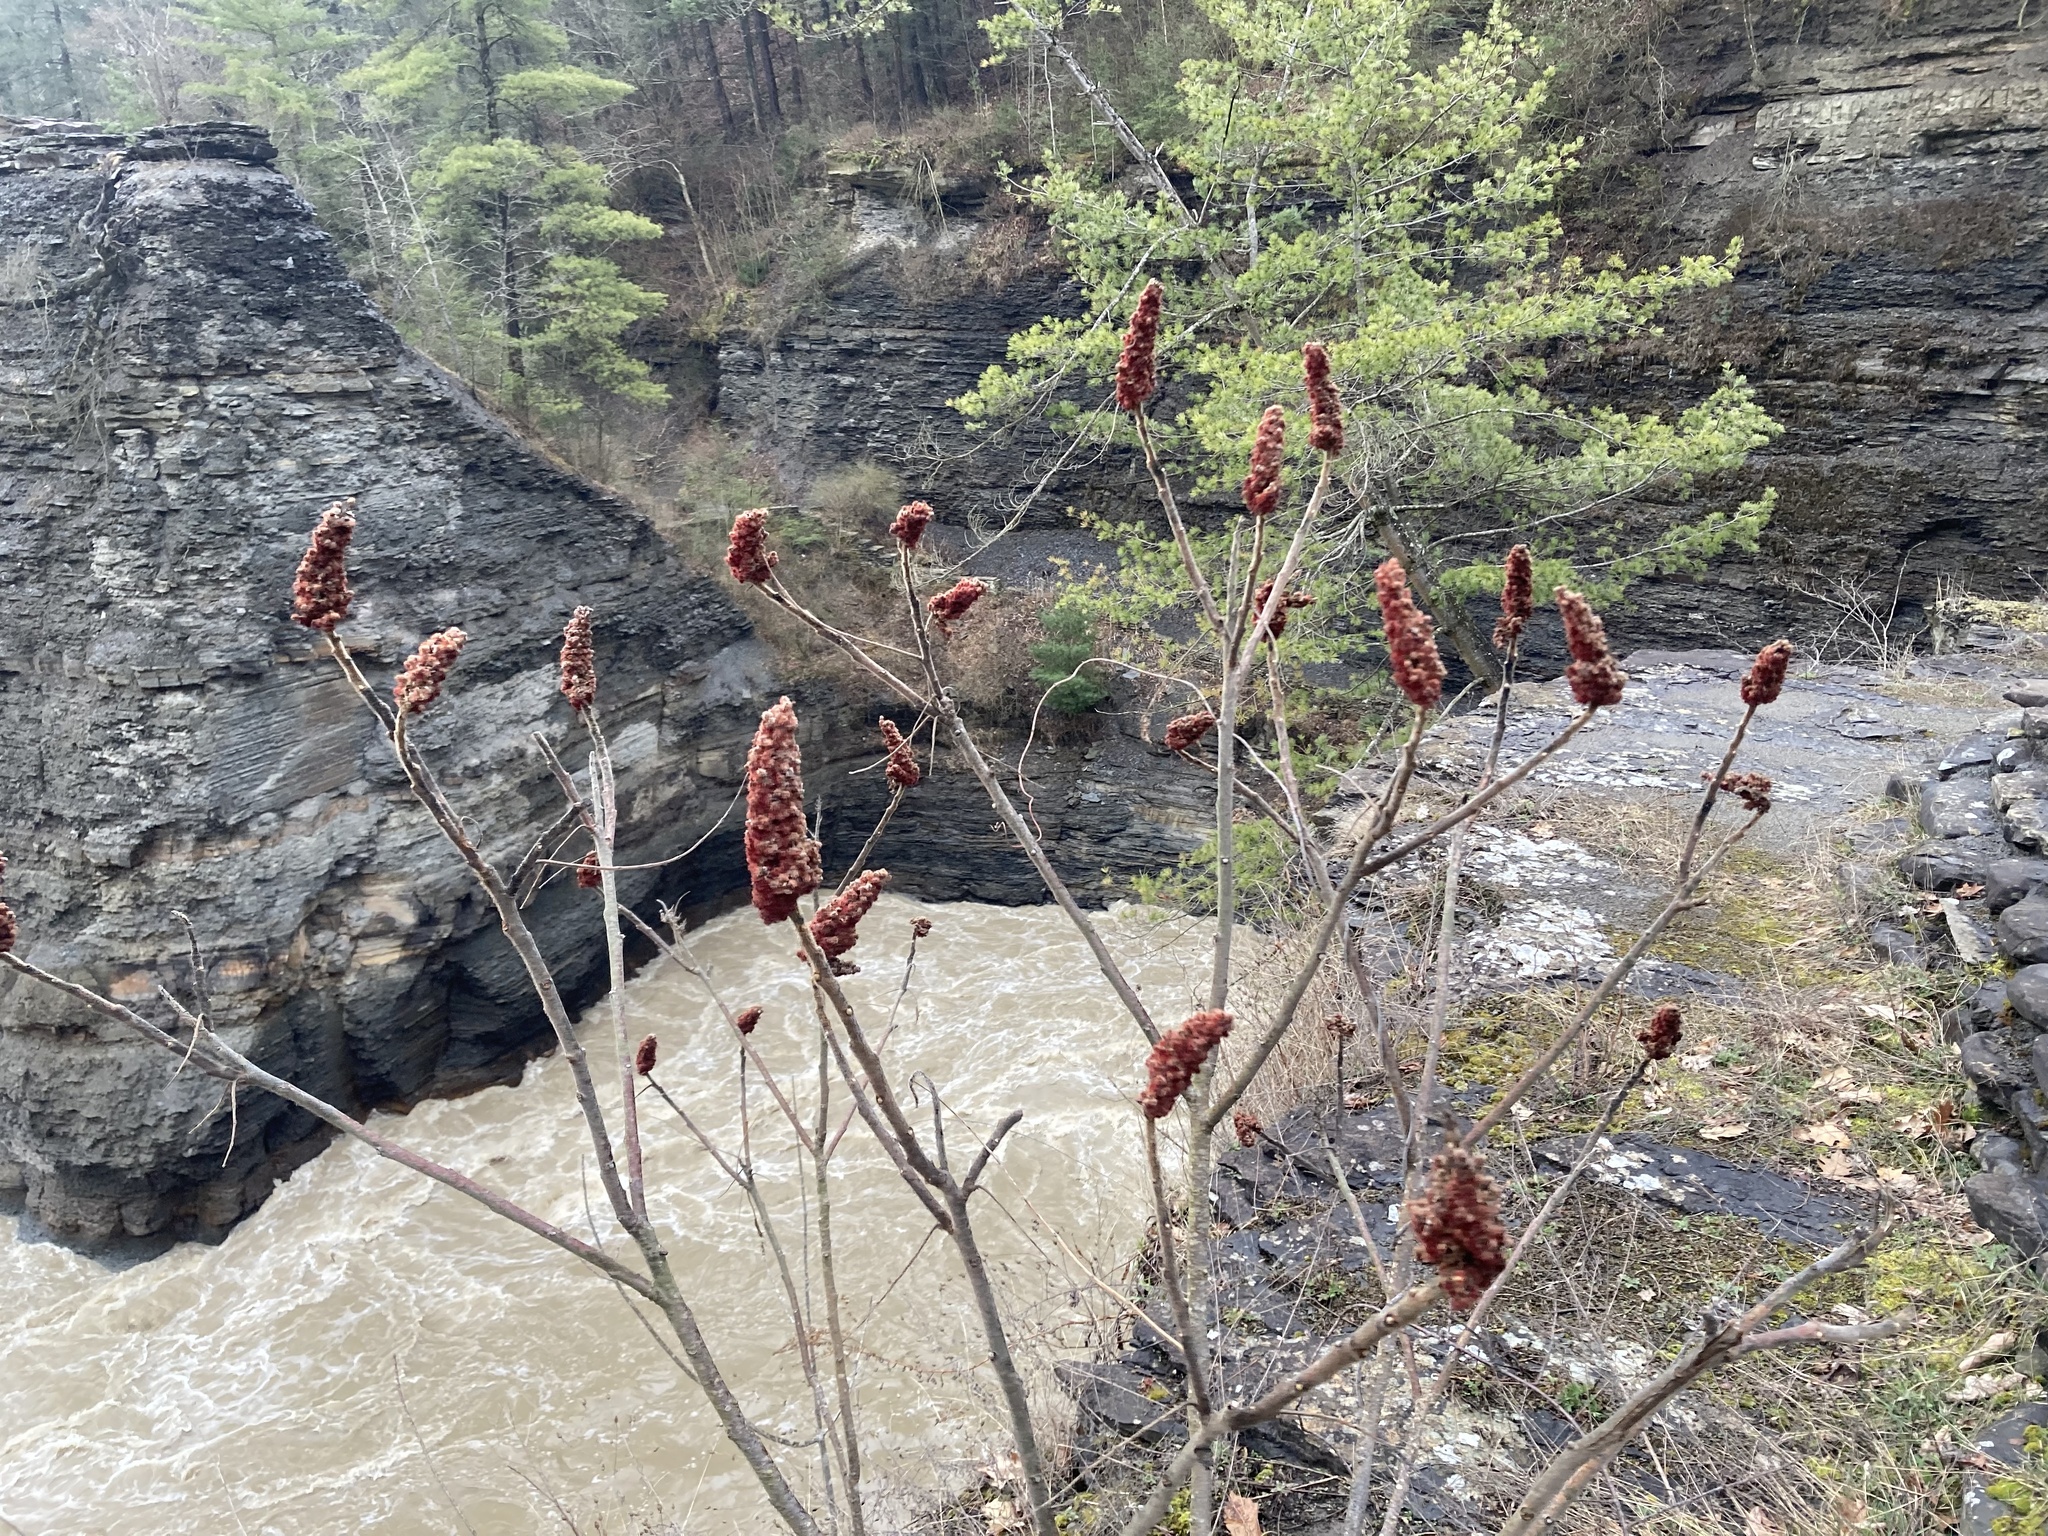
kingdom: Plantae
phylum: Tracheophyta
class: Magnoliopsida
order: Sapindales
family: Anacardiaceae
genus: Rhus
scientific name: Rhus typhina
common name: Staghorn sumac
